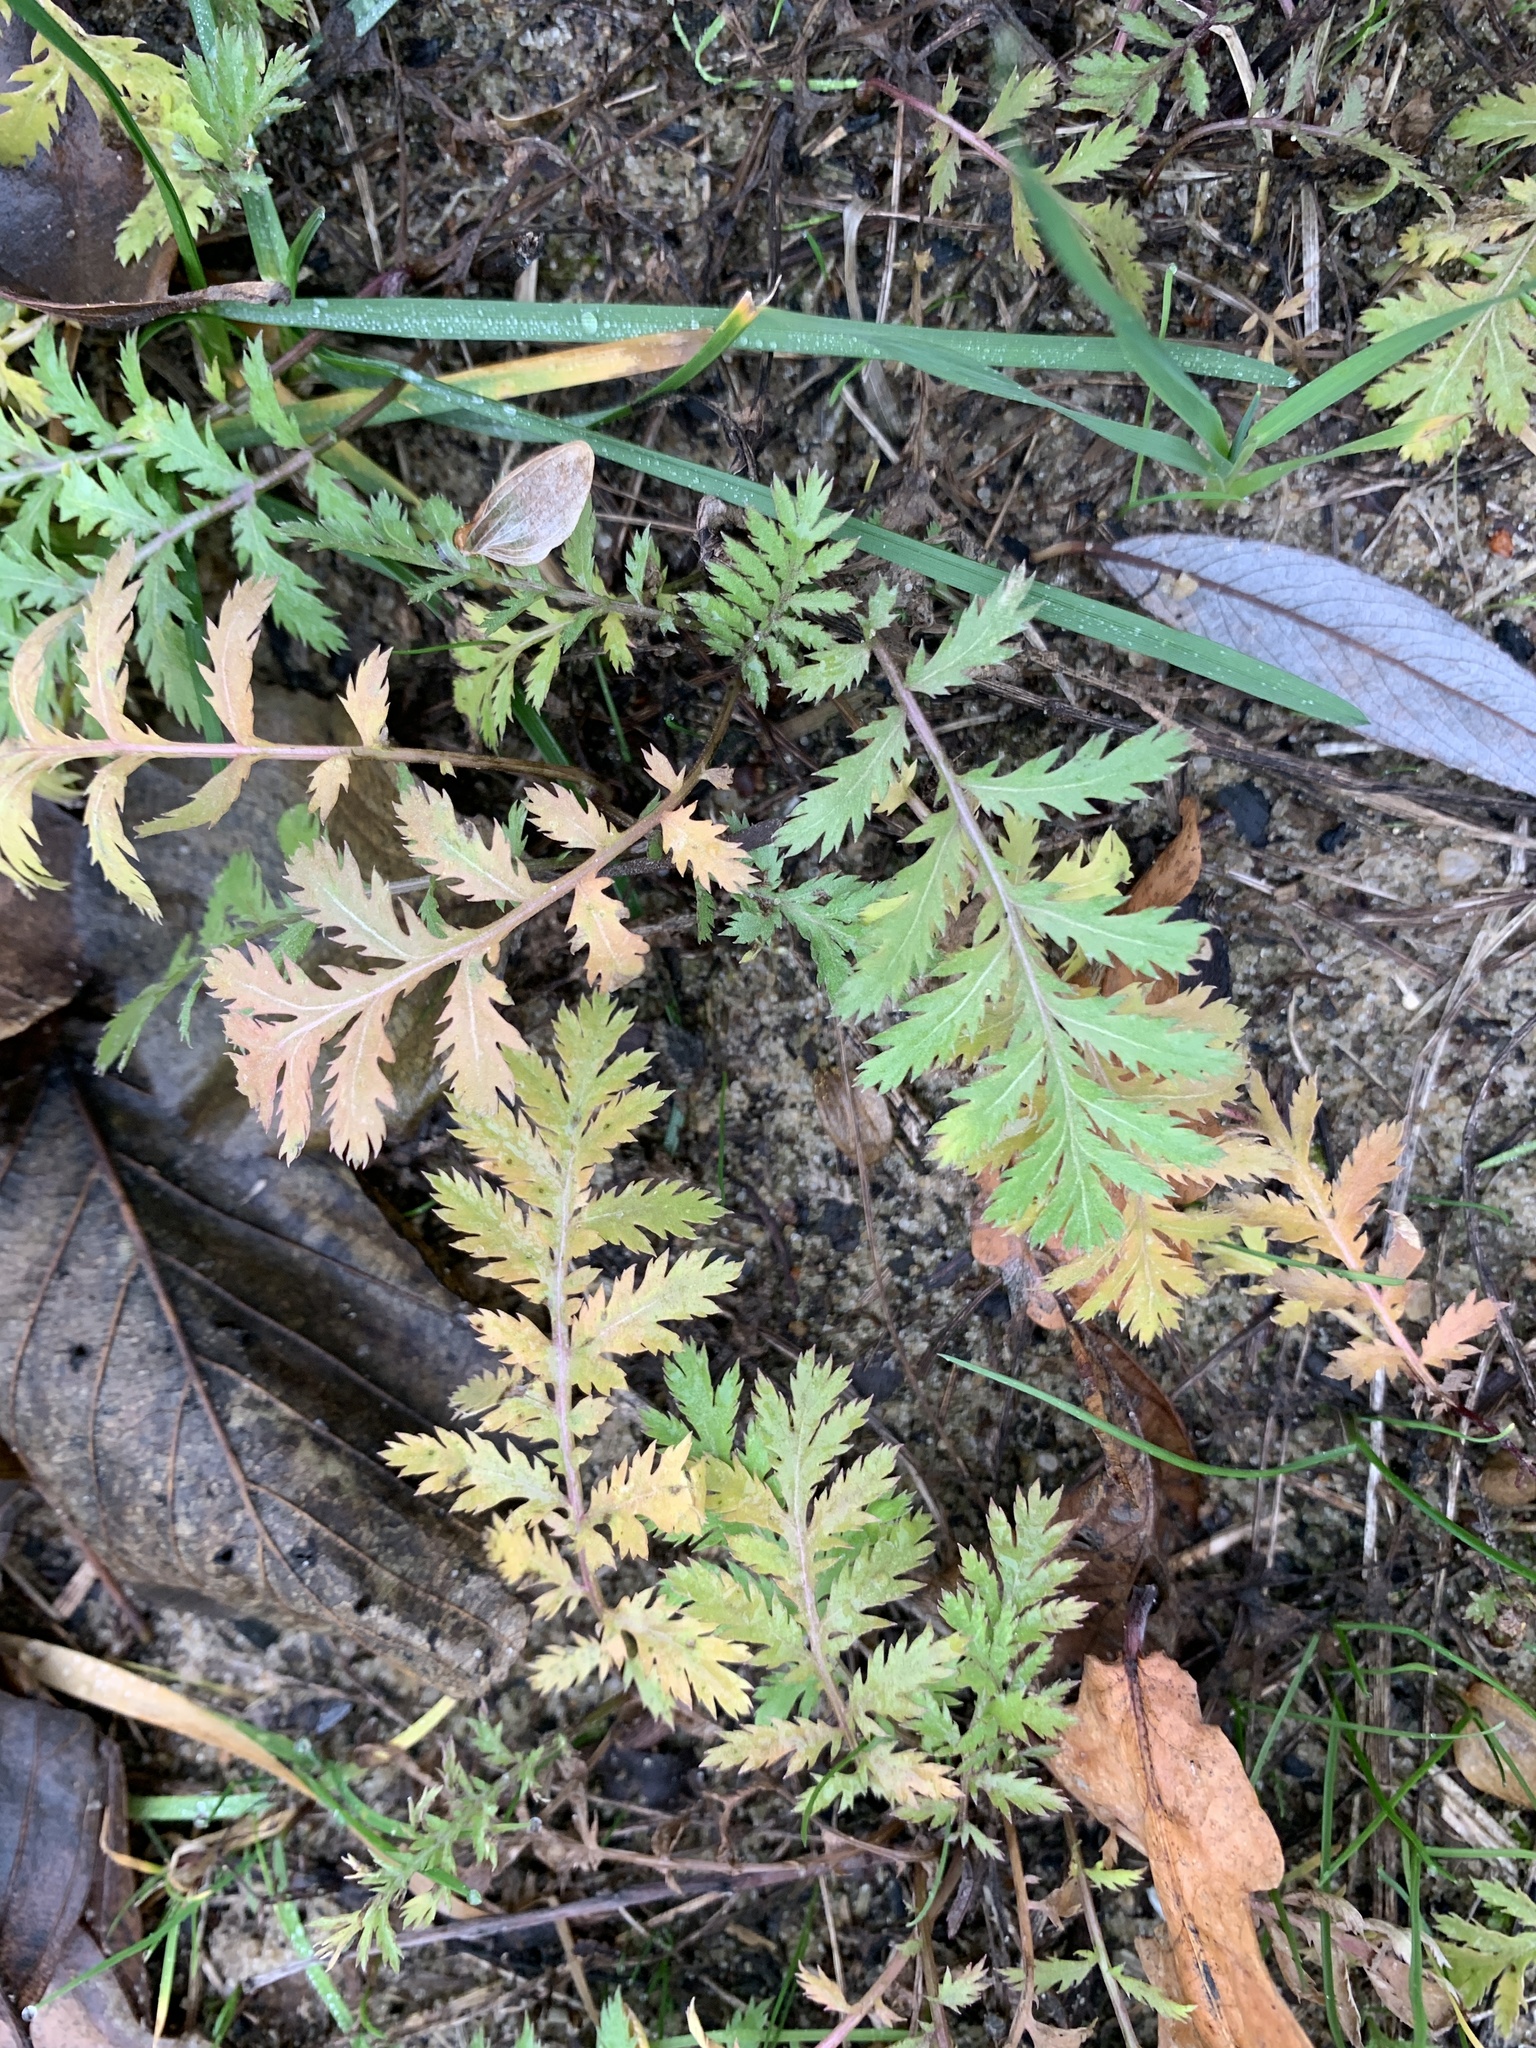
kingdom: Plantae
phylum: Tracheophyta
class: Magnoliopsida
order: Asterales
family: Asteraceae
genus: Tanacetum
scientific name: Tanacetum vulgare
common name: Common tansy
